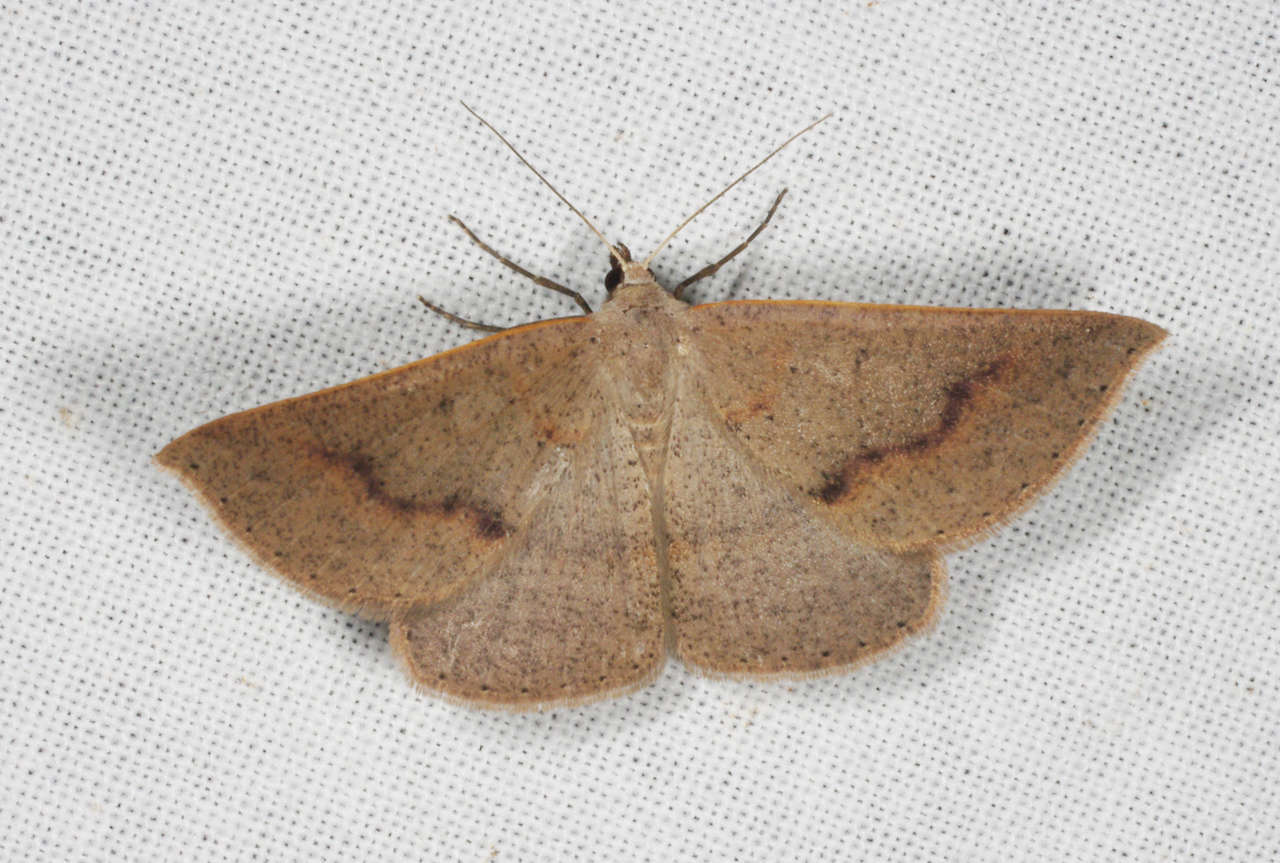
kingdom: Animalia
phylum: Arthropoda
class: Insecta
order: Lepidoptera
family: Geometridae
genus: Nearcha
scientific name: Nearcha ursaria
